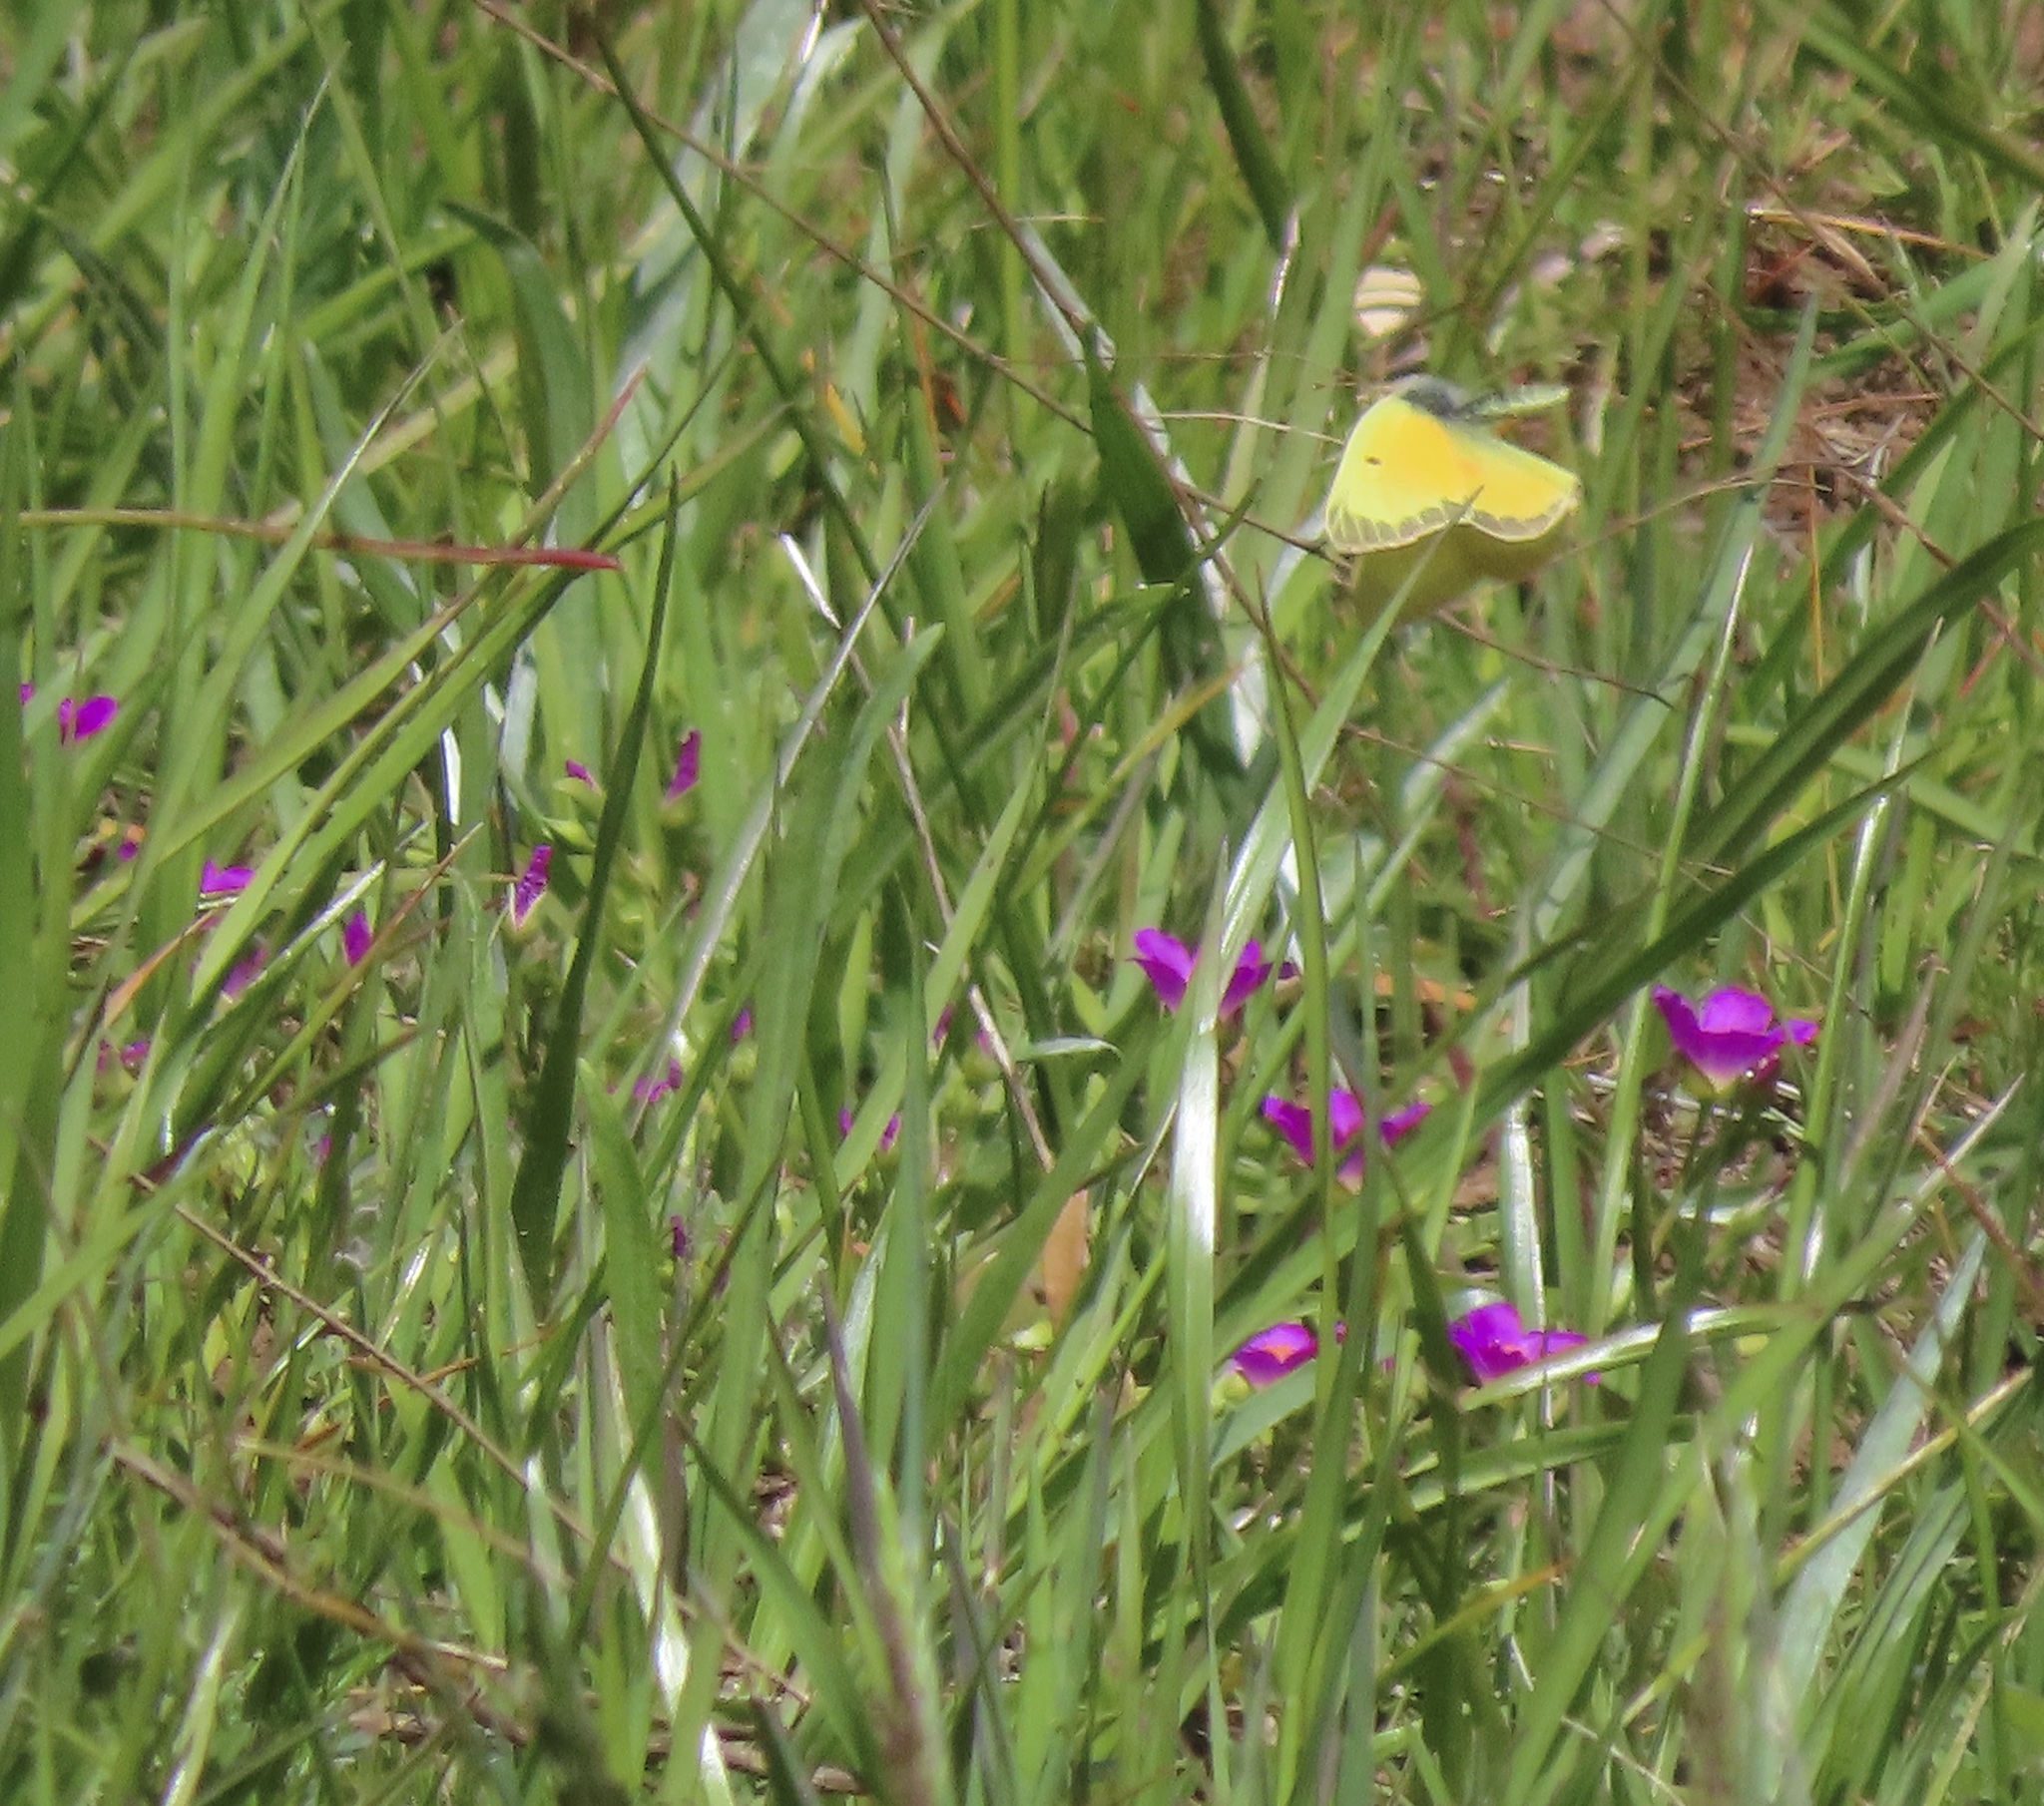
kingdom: Animalia
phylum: Arthropoda
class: Insecta
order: Lepidoptera
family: Pieridae
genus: Colias
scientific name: Colias eurytheme
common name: Alfalfa butterfly
